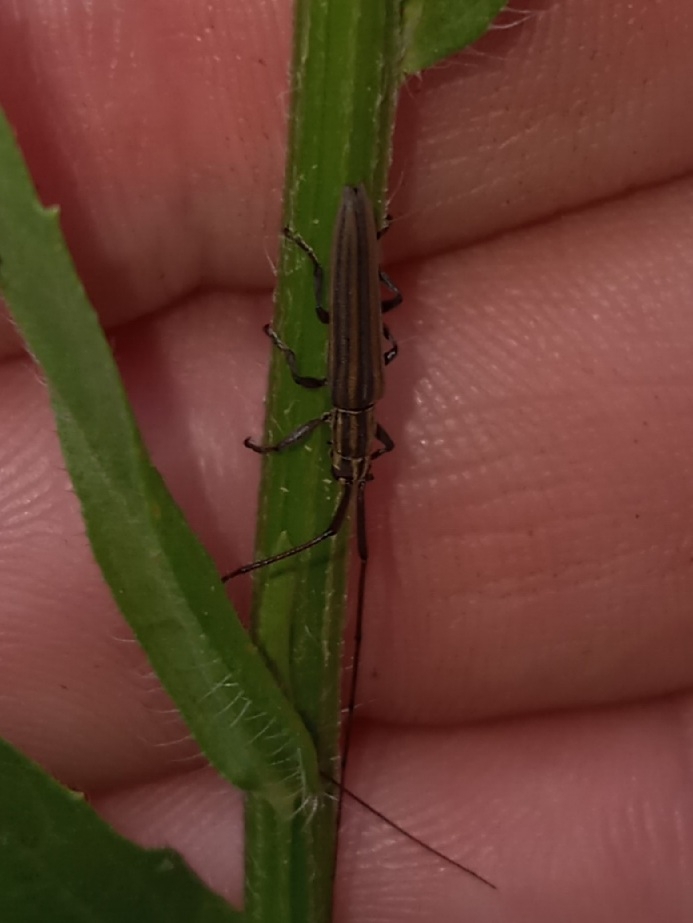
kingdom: Animalia
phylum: Arthropoda
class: Insecta
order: Coleoptera
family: Cerambycidae
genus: Hippopsis
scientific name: Hippopsis
